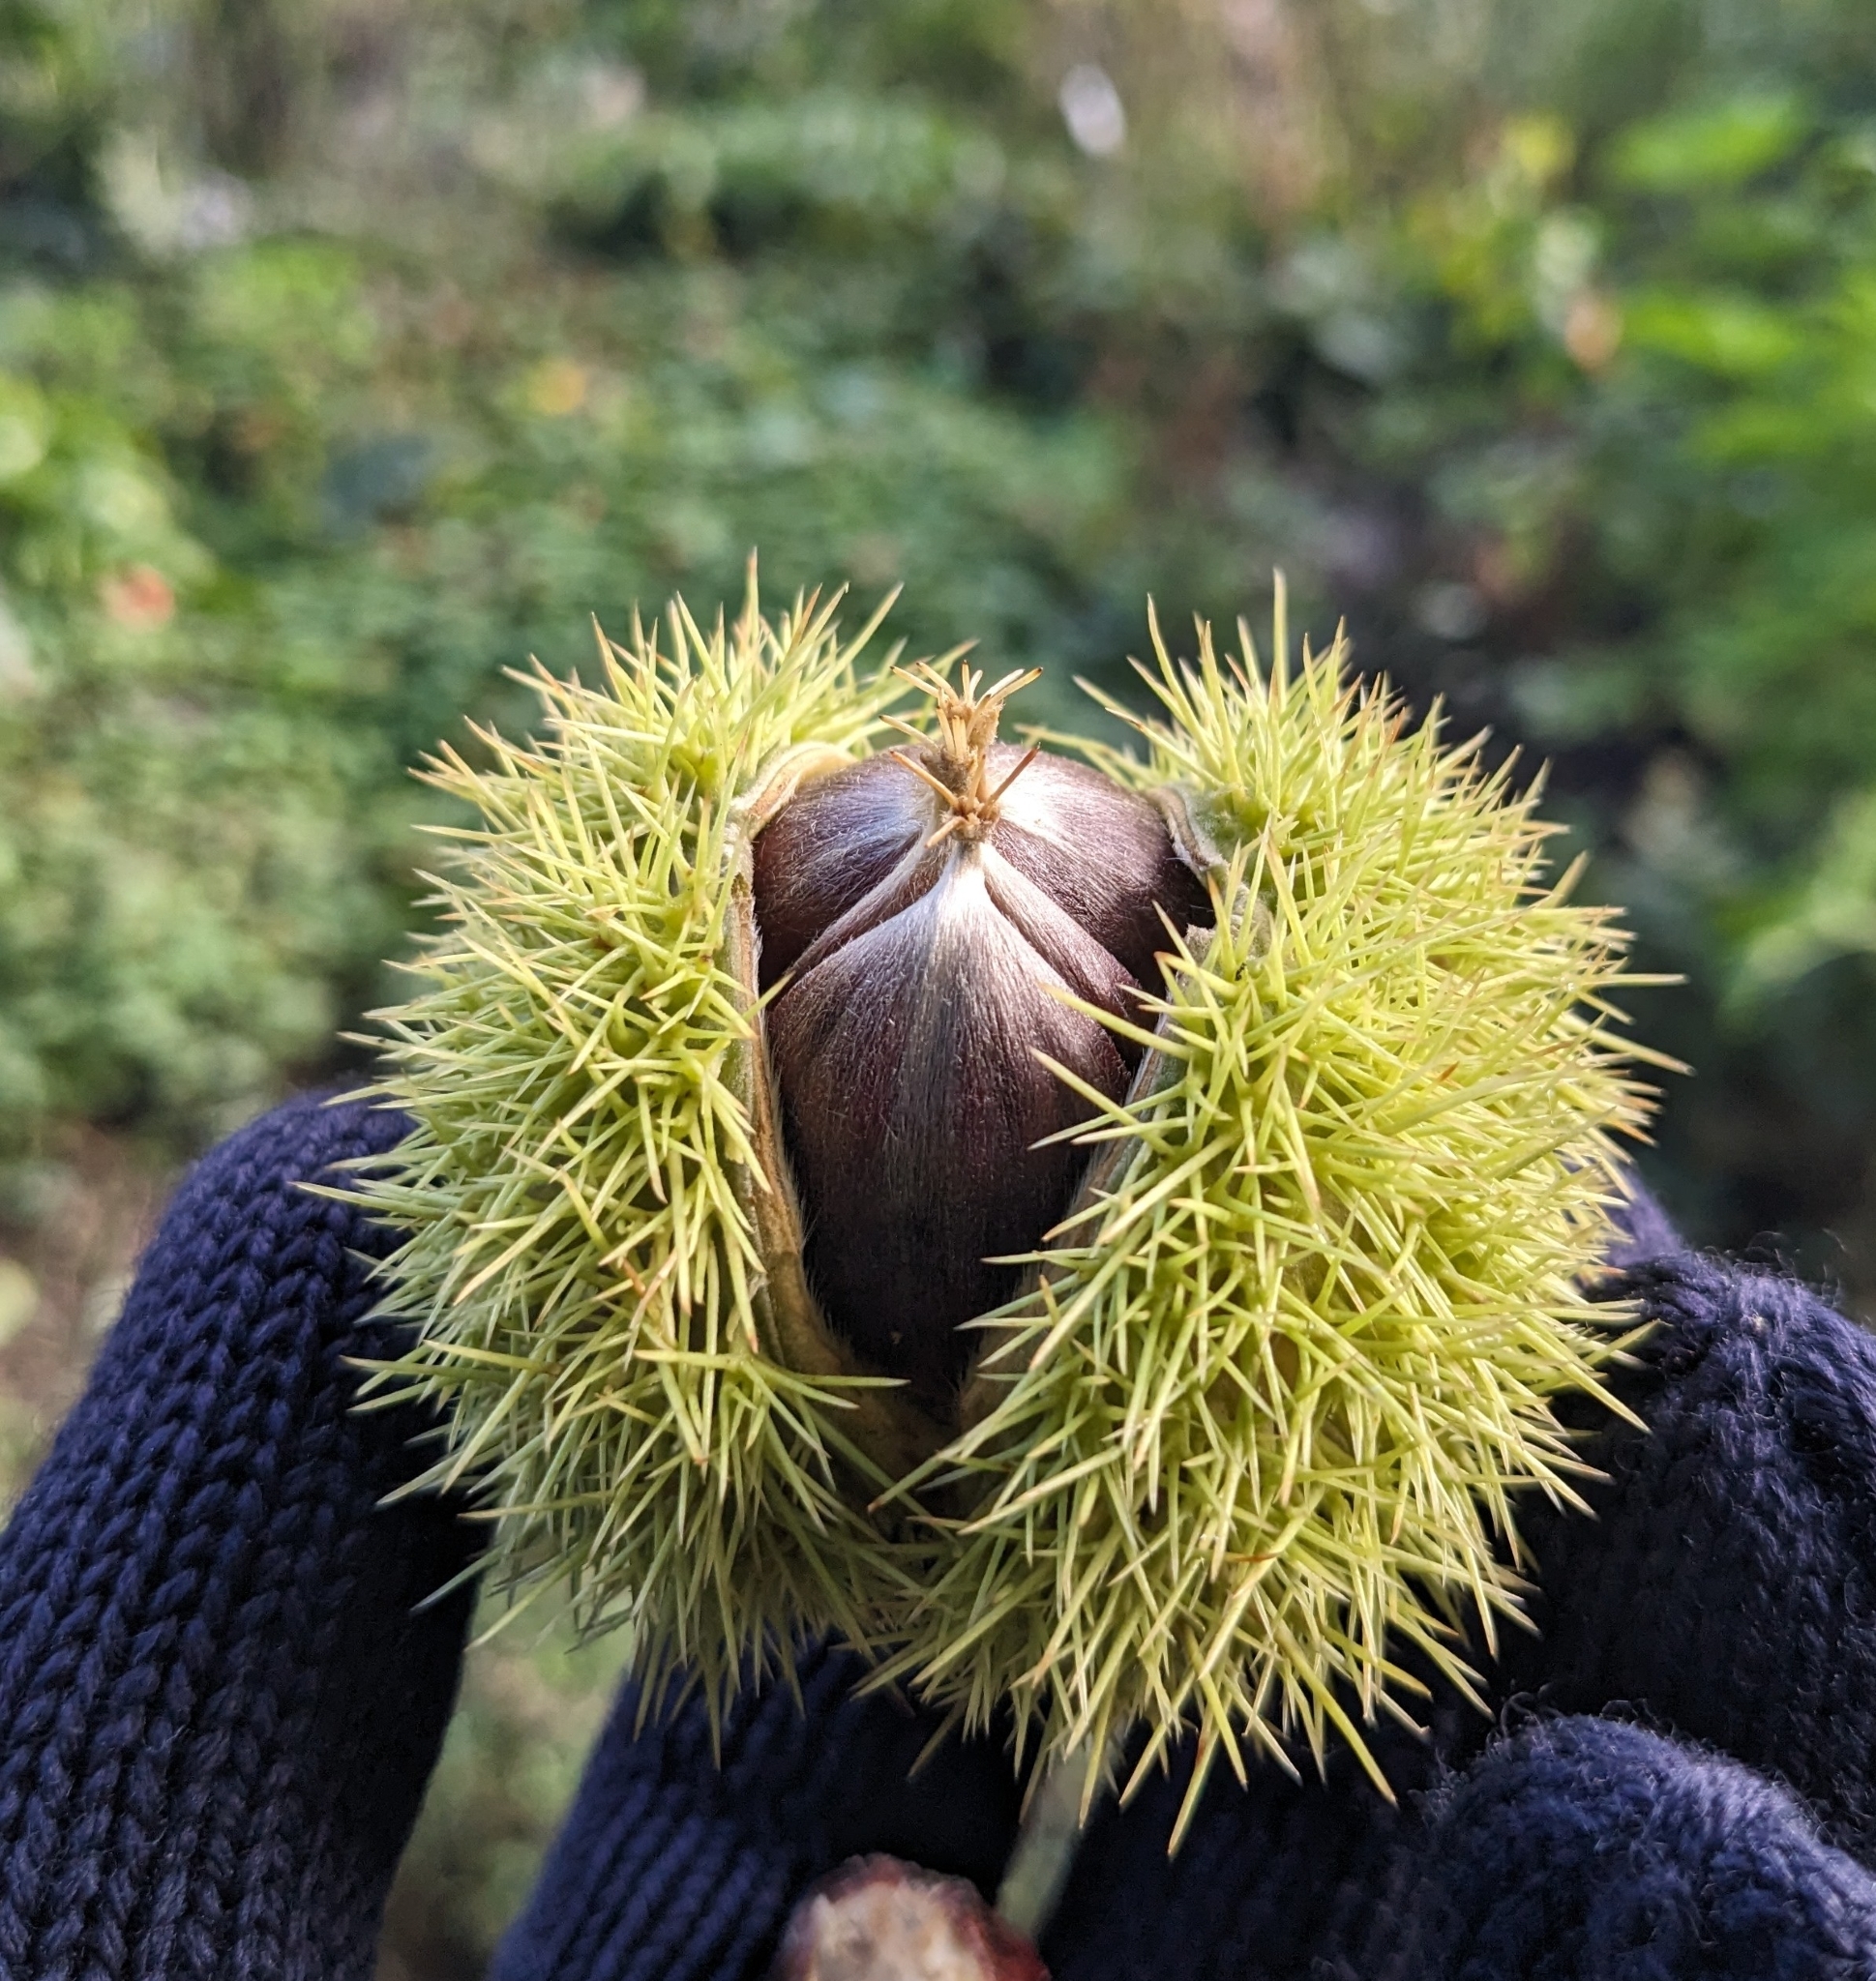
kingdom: Plantae
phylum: Tracheophyta
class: Magnoliopsida
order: Fagales
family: Fagaceae
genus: Castanea
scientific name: Castanea sativa
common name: Sweet chestnut
